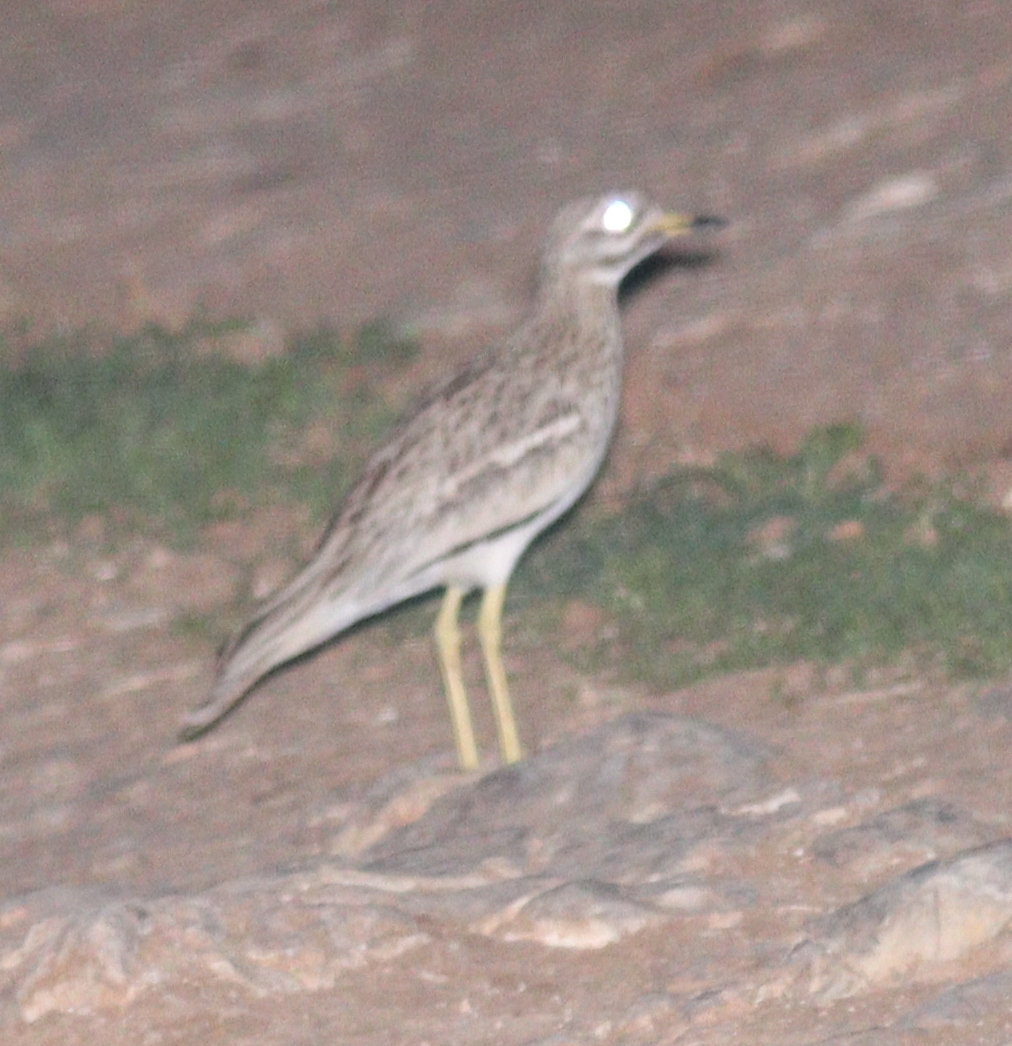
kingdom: Animalia
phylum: Chordata
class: Aves
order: Charadriiformes
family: Burhinidae
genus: Burhinus
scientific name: Burhinus oedicnemus
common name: Eurasian stone-curlew
